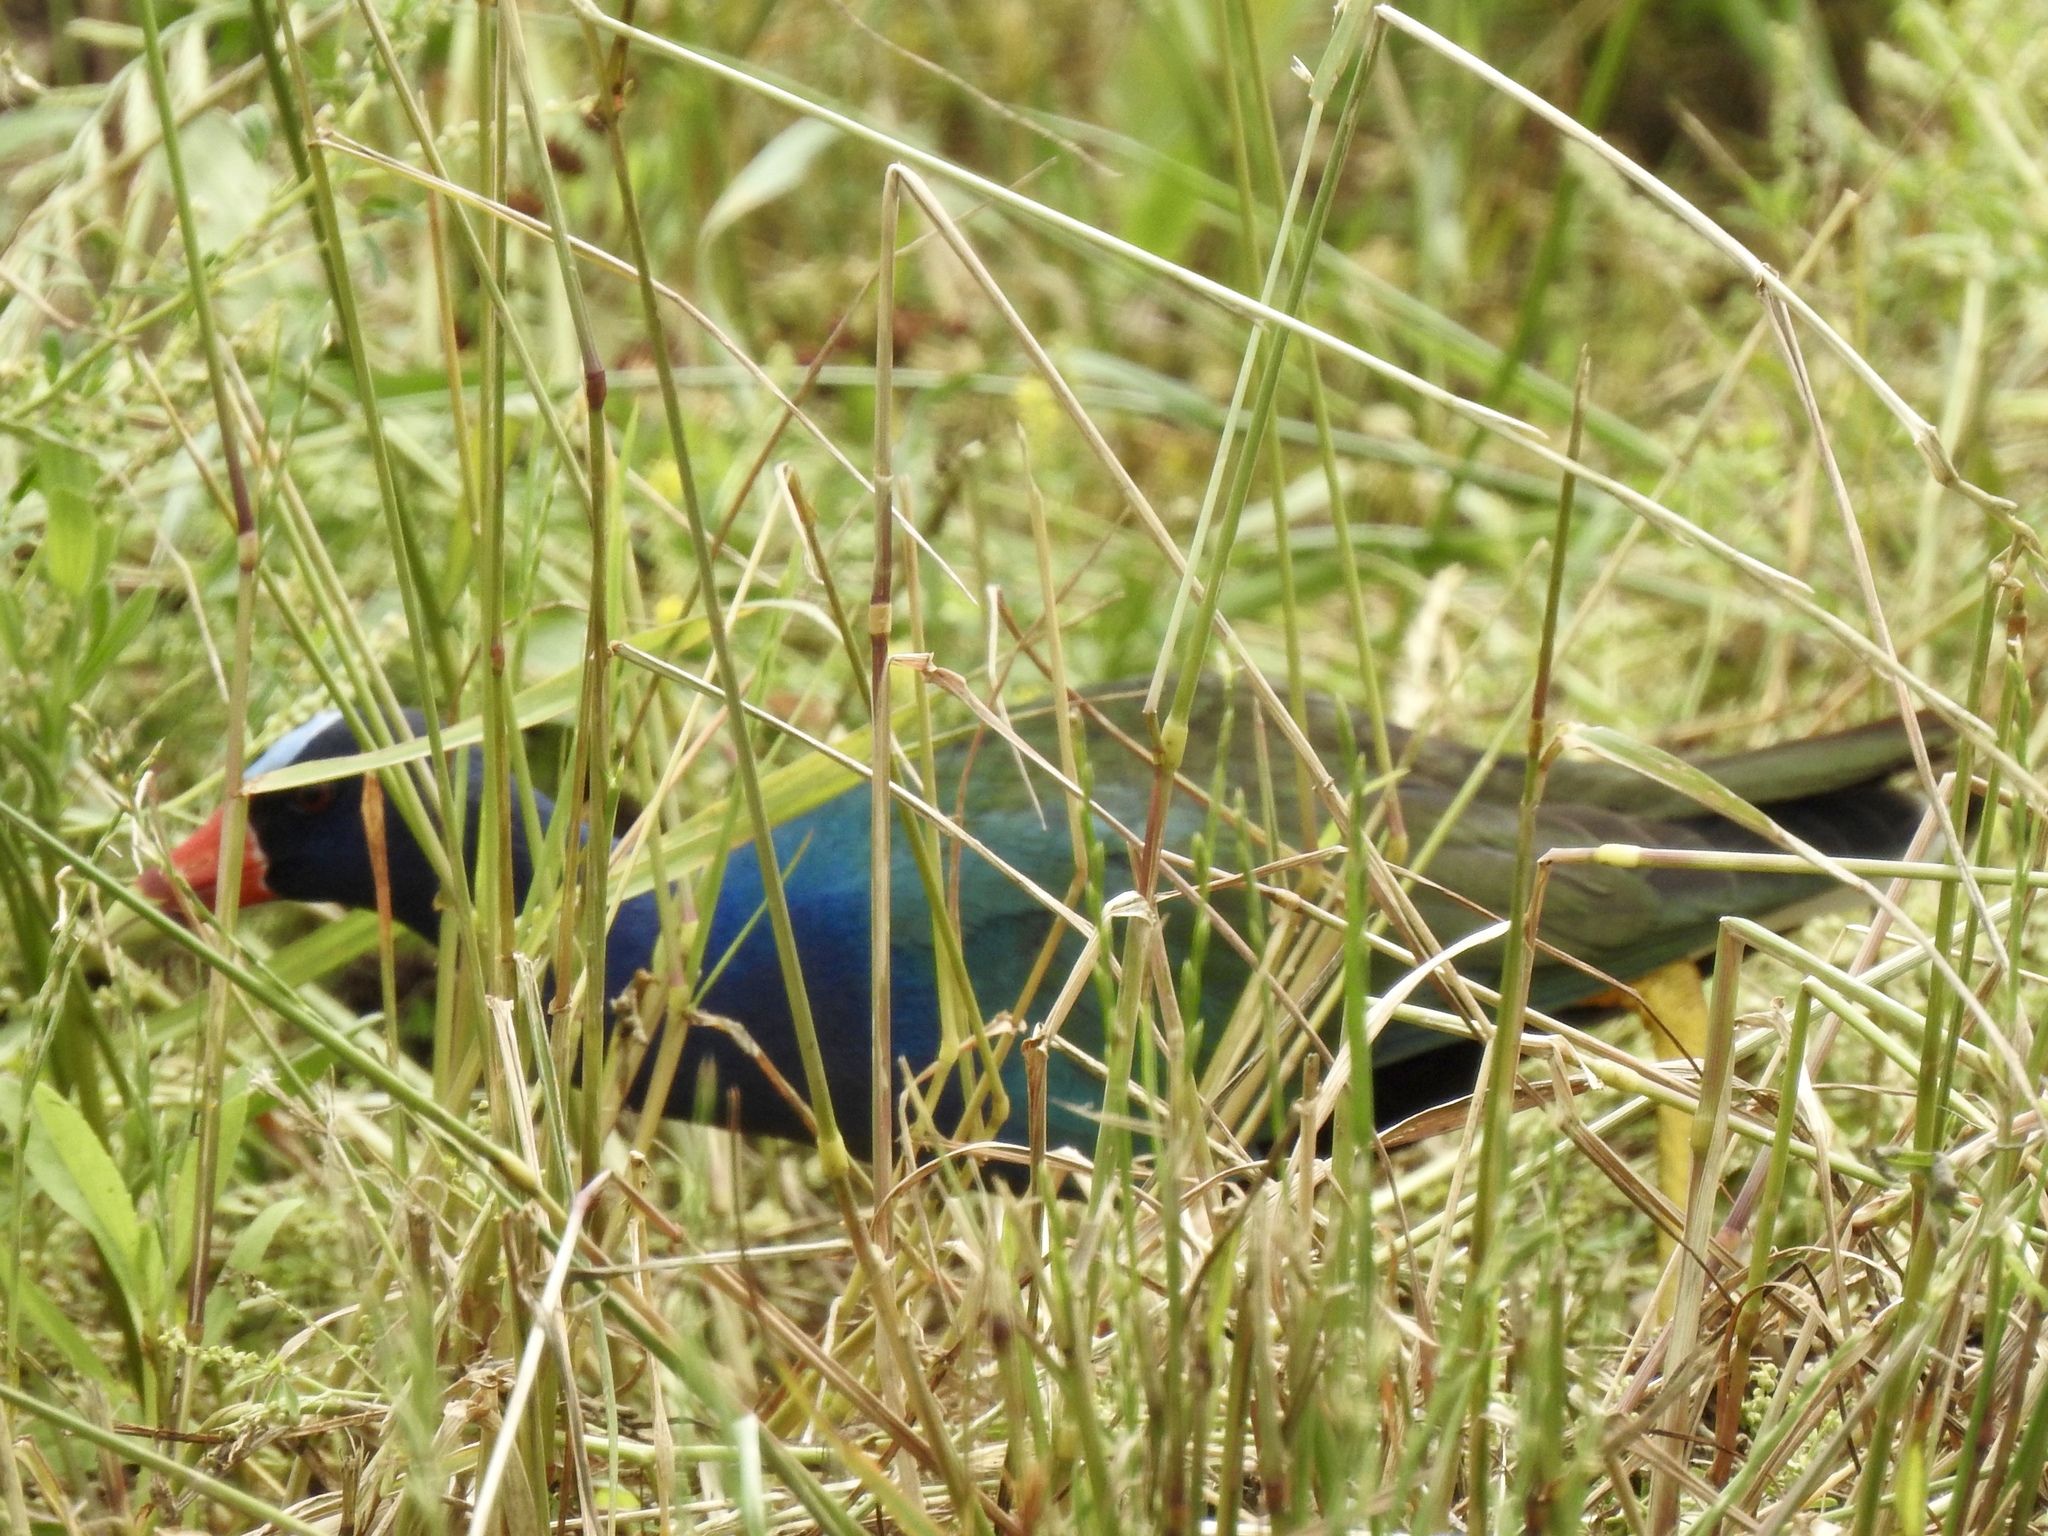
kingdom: Animalia
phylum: Chordata
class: Aves
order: Gruiformes
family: Rallidae
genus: Porphyrio
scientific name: Porphyrio martinica
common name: Purple gallinule
